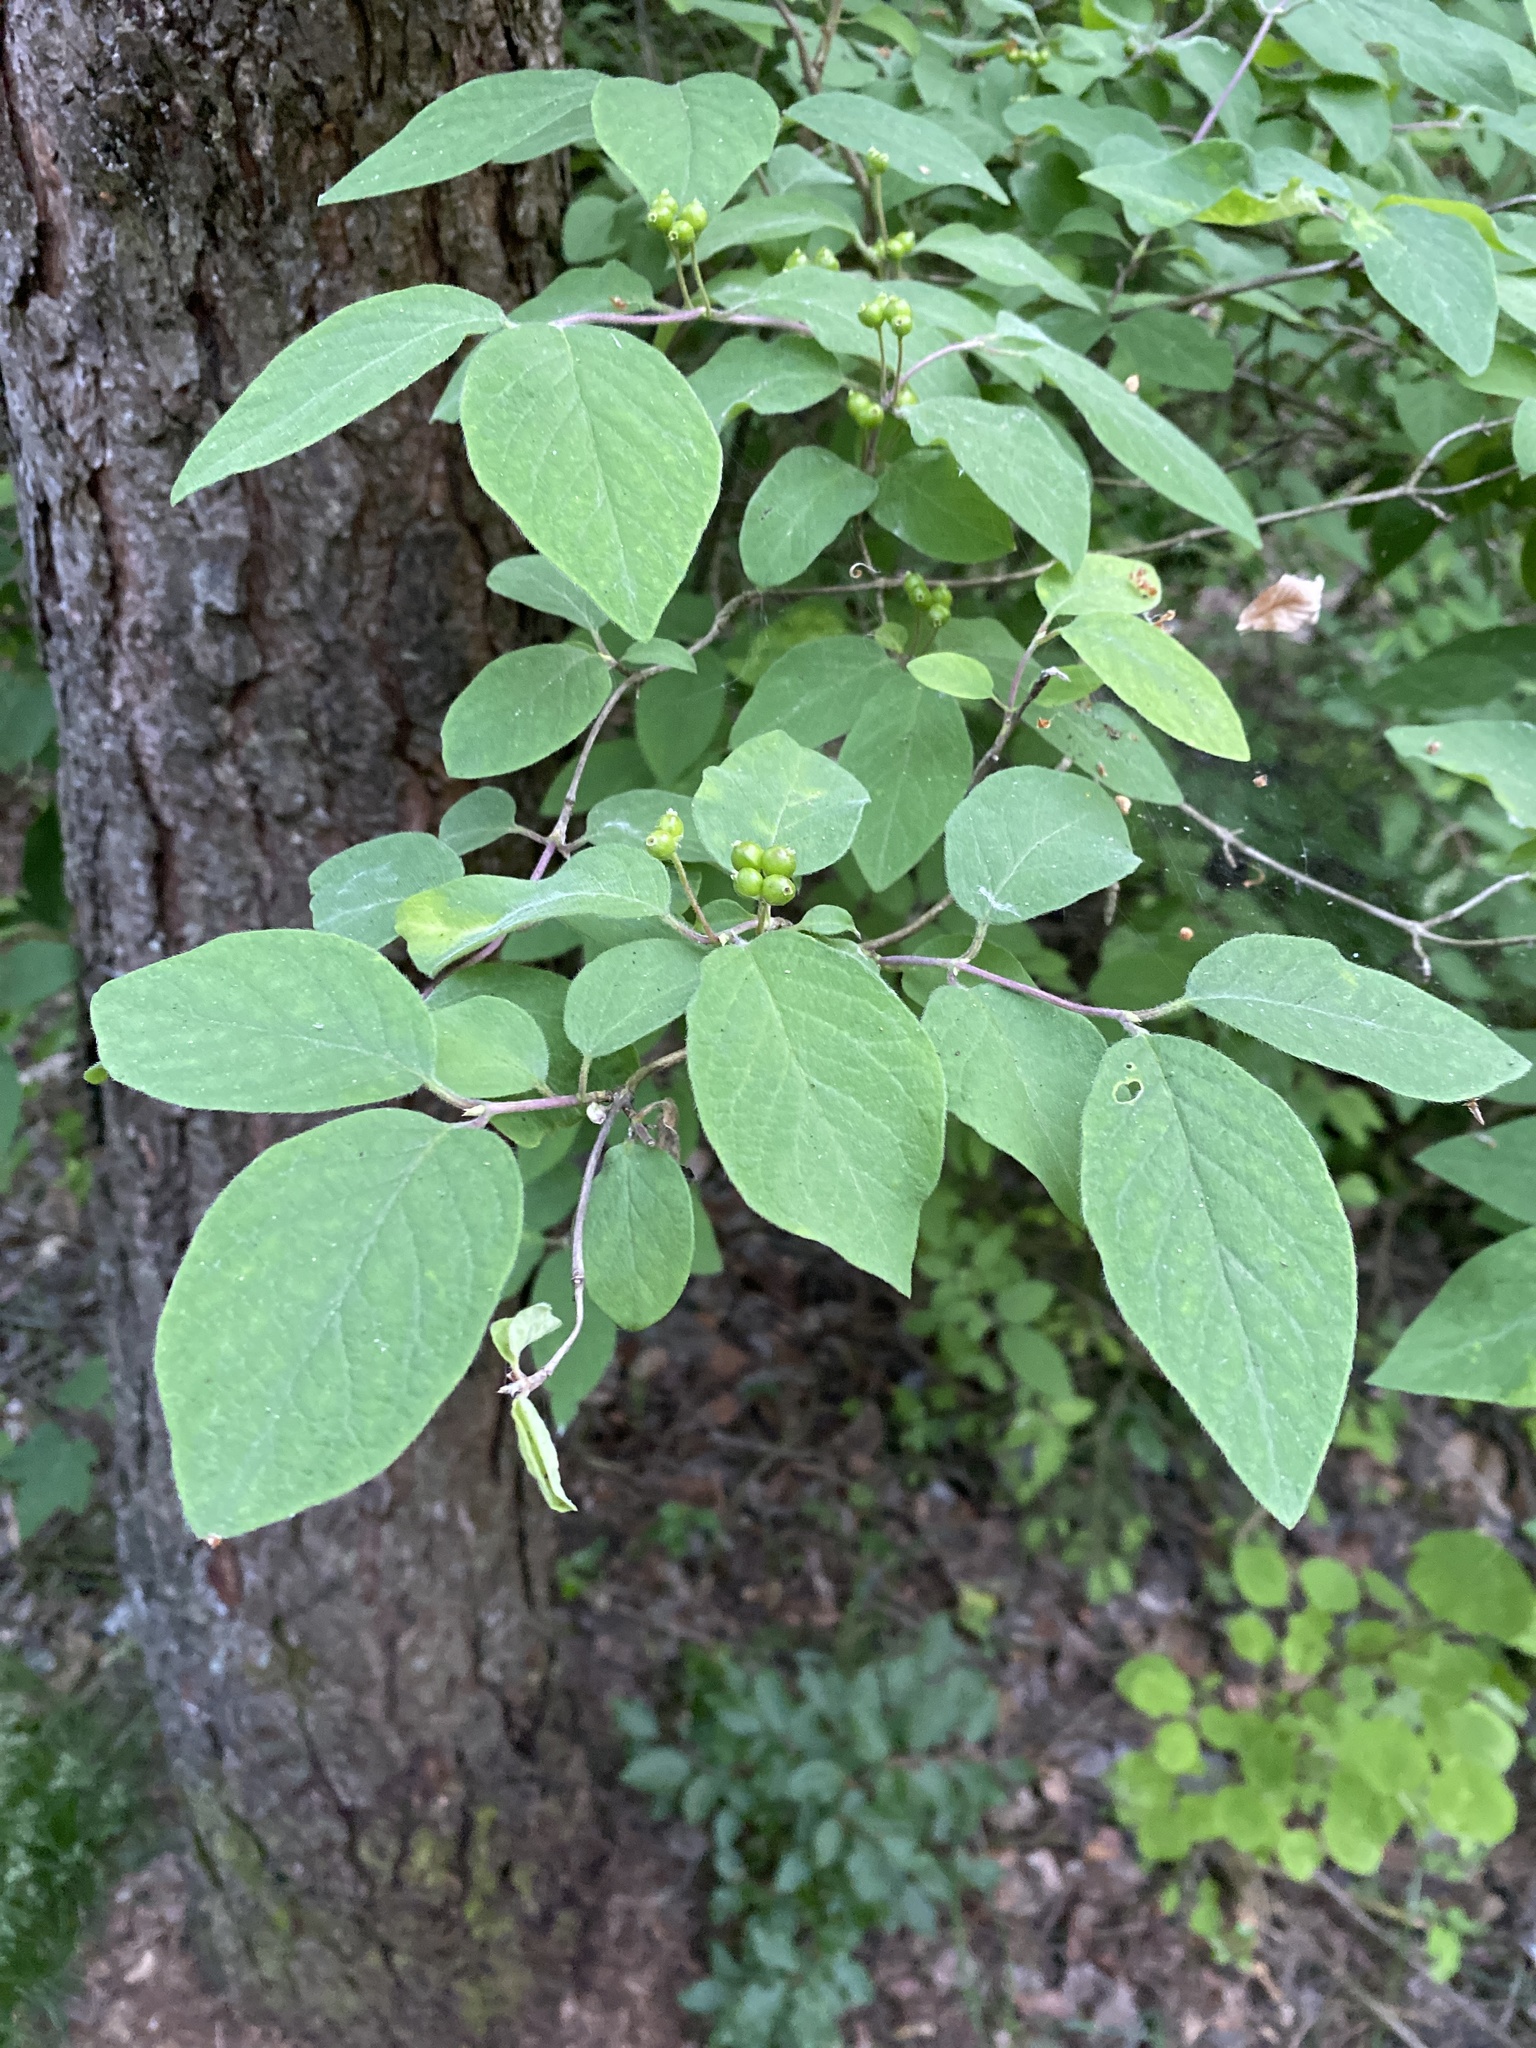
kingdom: Plantae
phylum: Tracheophyta
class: Magnoliopsida
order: Dipsacales
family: Caprifoliaceae
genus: Lonicera
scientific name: Lonicera xylosteum
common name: Fly honeysuckle
